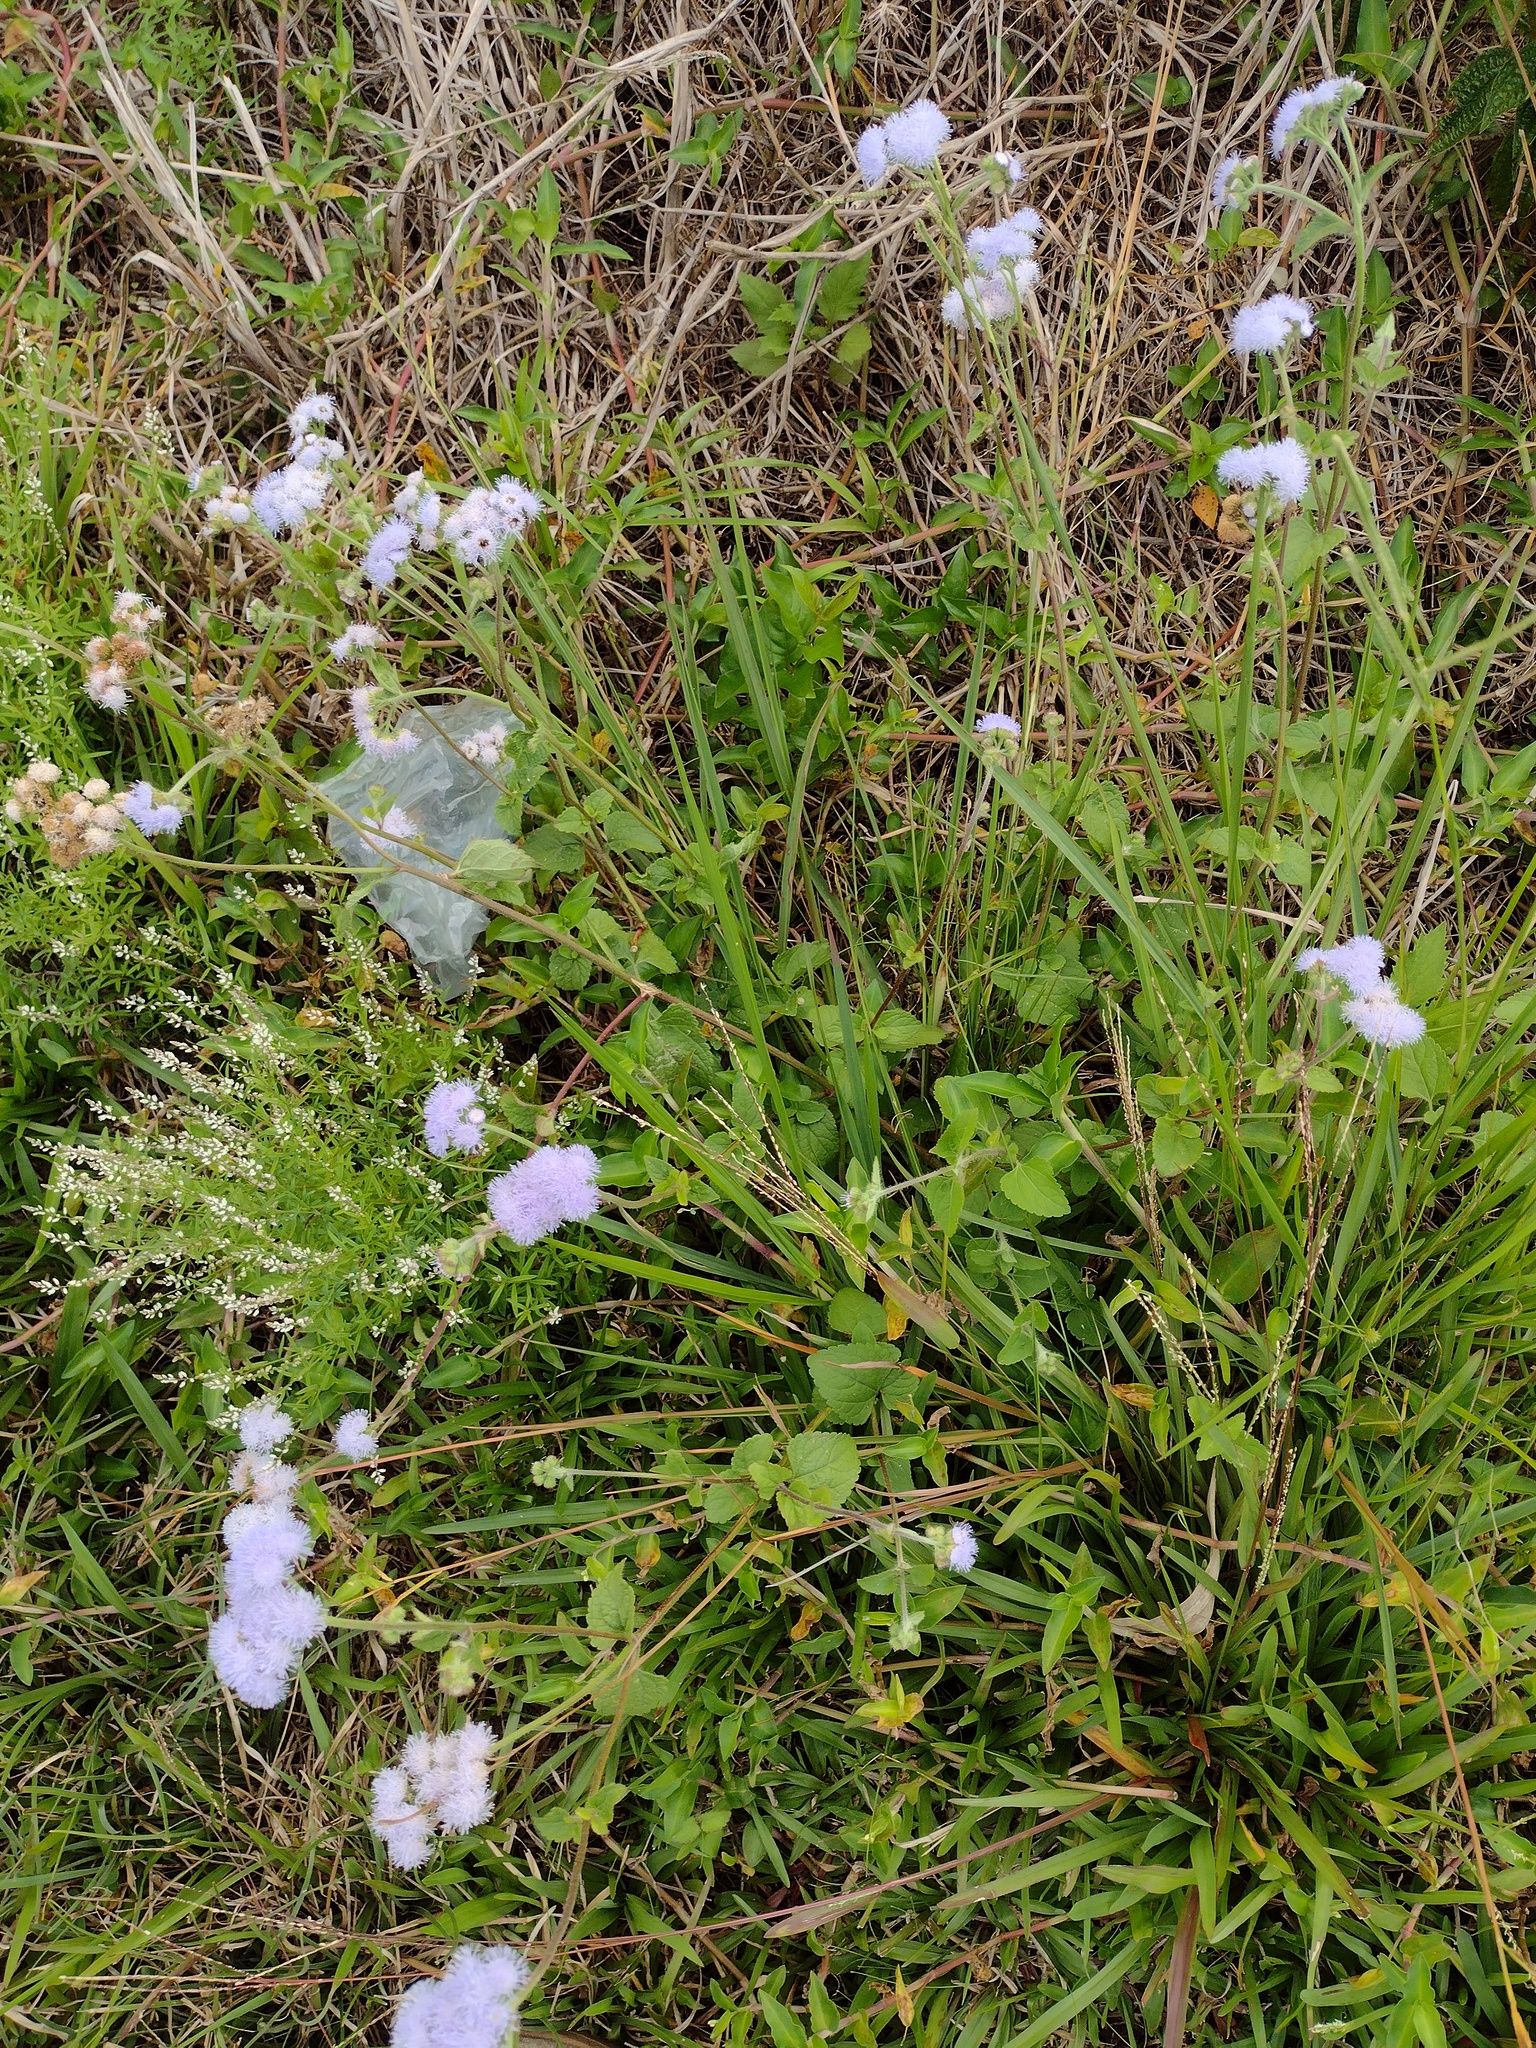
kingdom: Plantae
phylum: Tracheophyta
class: Magnoliopsida
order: Asterales
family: Asteraceae
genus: Ageratum
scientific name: Ageratum houstonianum
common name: Bluemink
